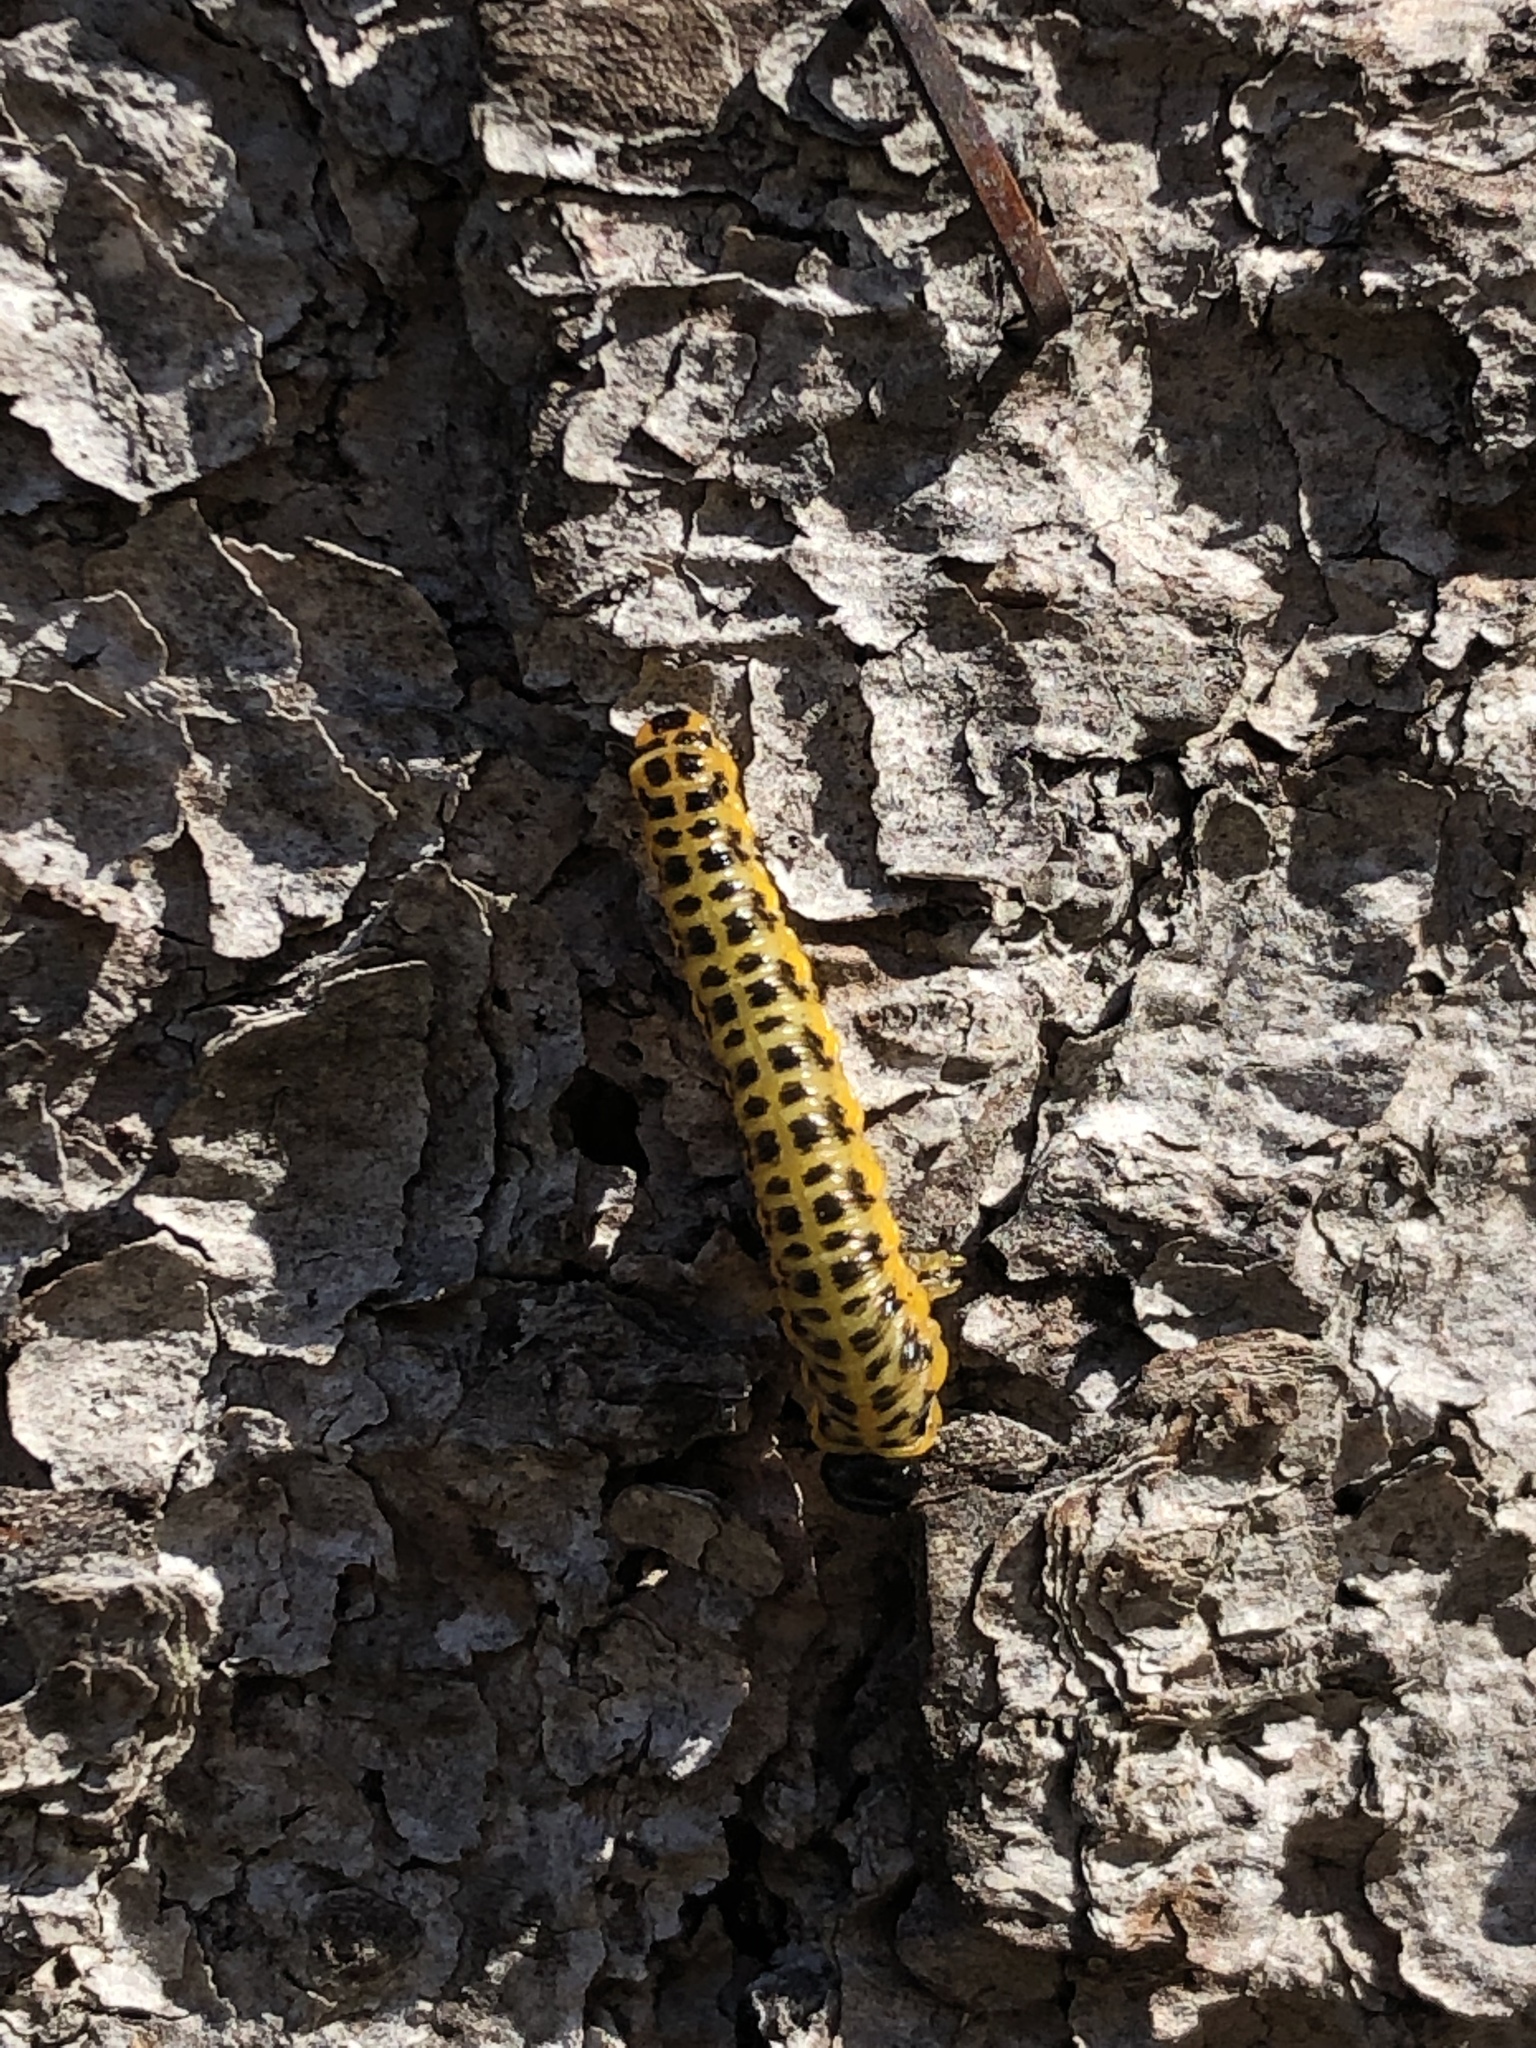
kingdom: Animalia
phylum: Arthropoda
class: Insecta
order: Hymenoptera
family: Tenthredinidae
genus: Macremphytus
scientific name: Macremphytus testaceus
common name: Dogwood sawfly
